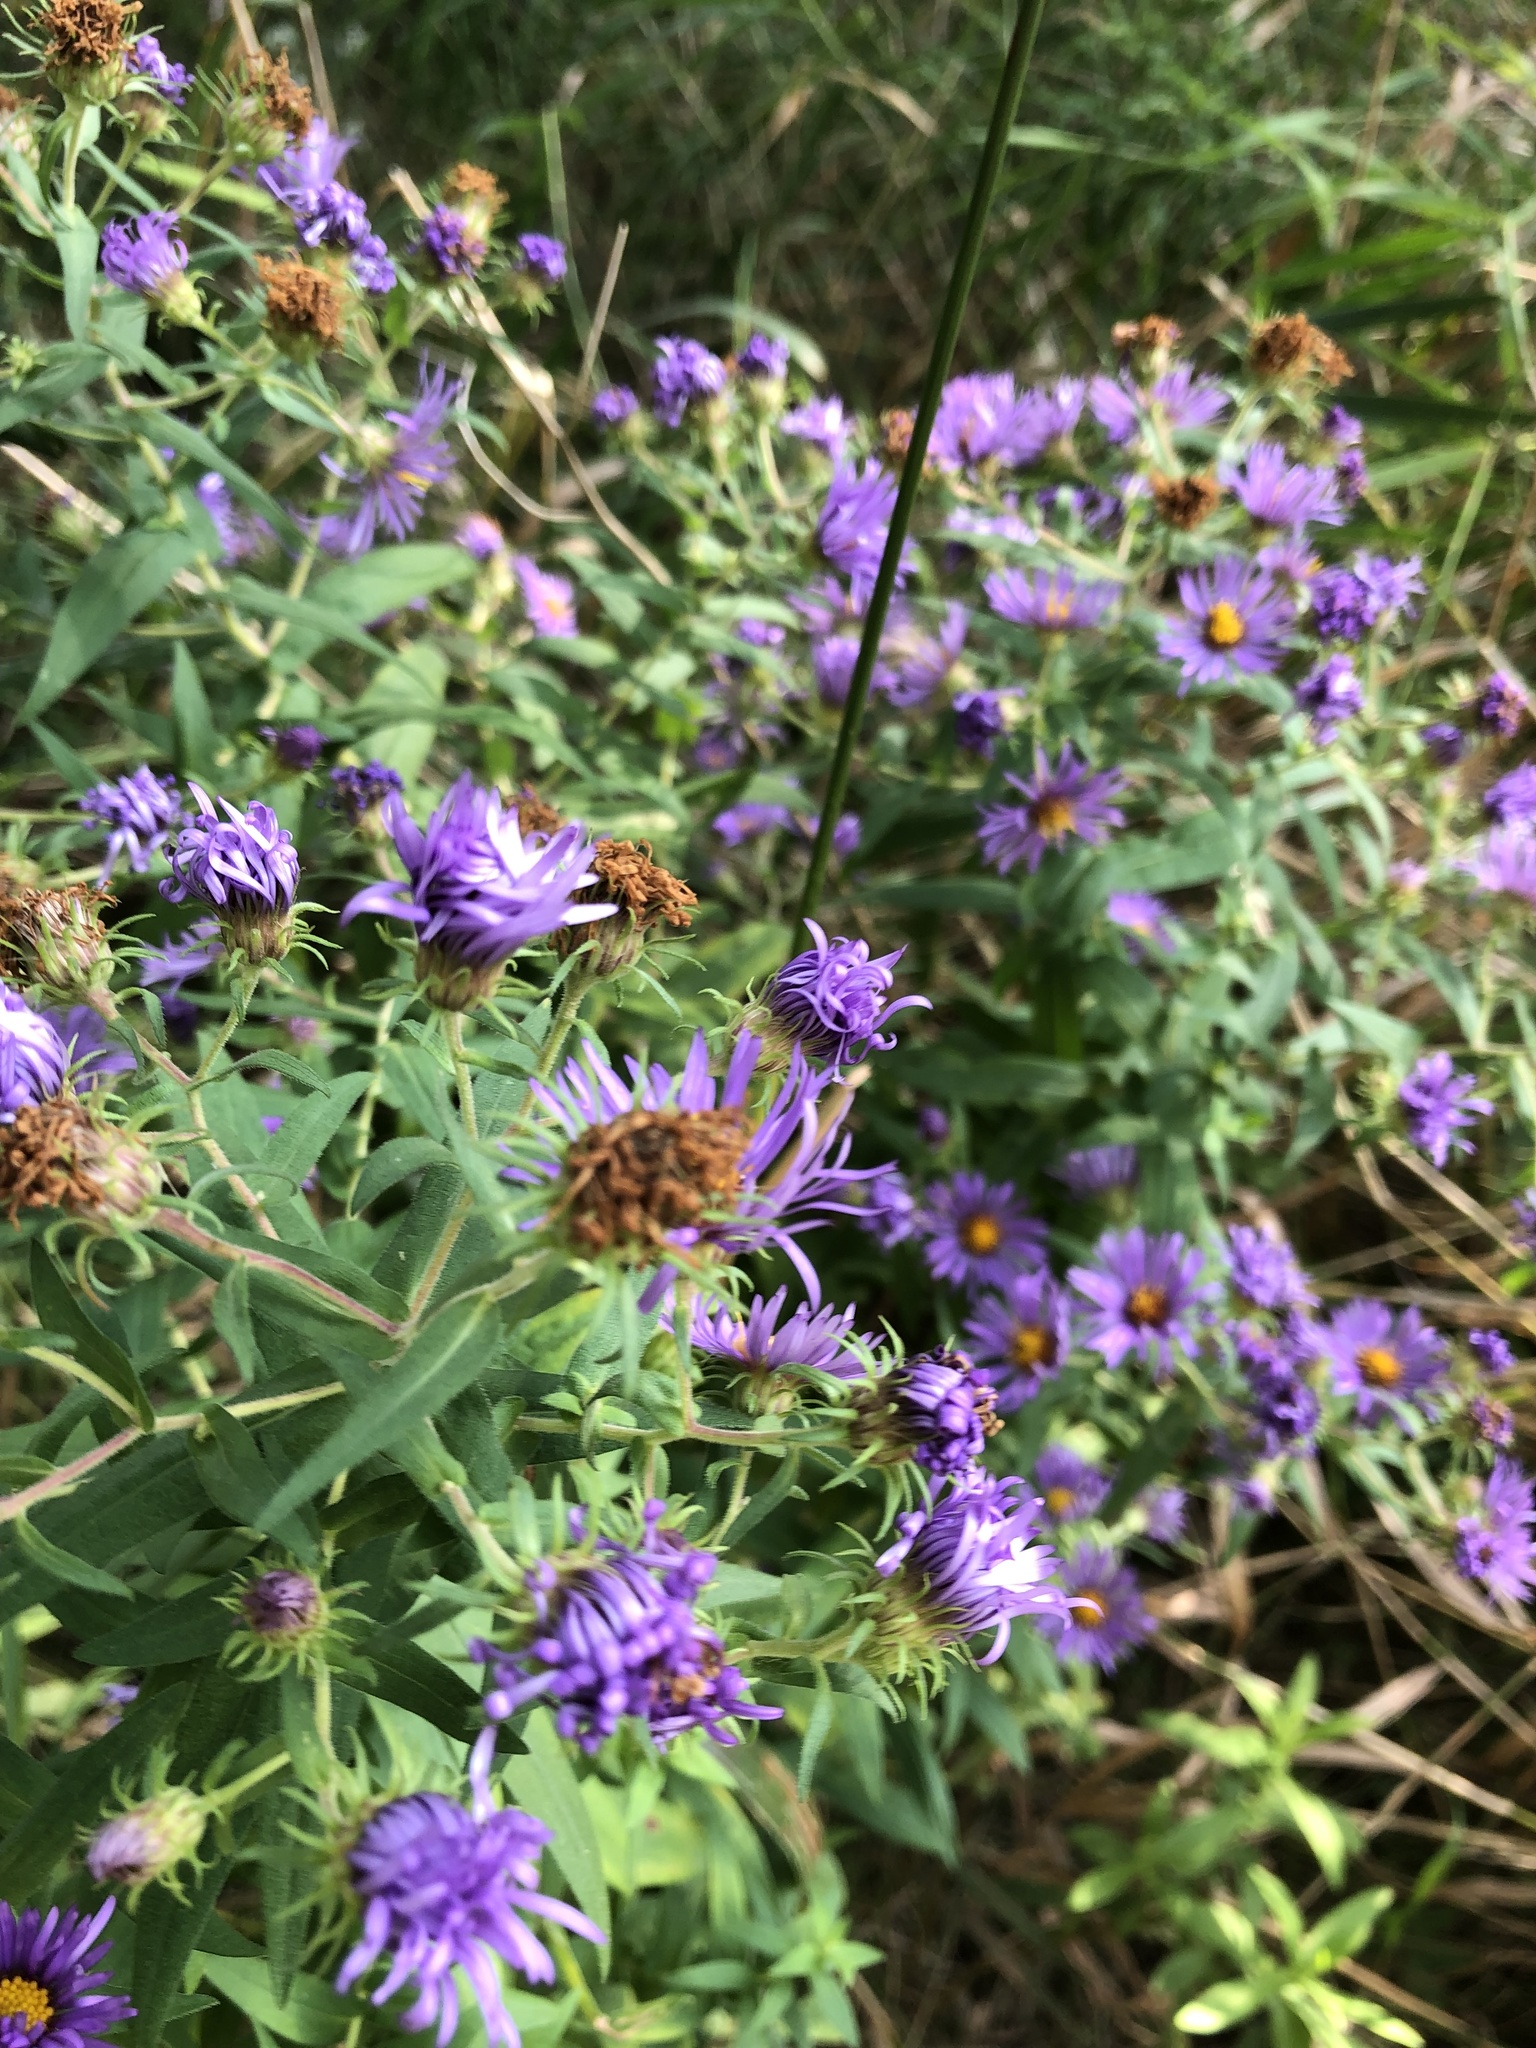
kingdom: Plantae
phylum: Tracheophyta
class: Magnoliopsida
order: Asterales
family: Asteraceae
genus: Symphyotrichum
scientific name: Symphyotrichum novae-angliae
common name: Michaelmas daisy
